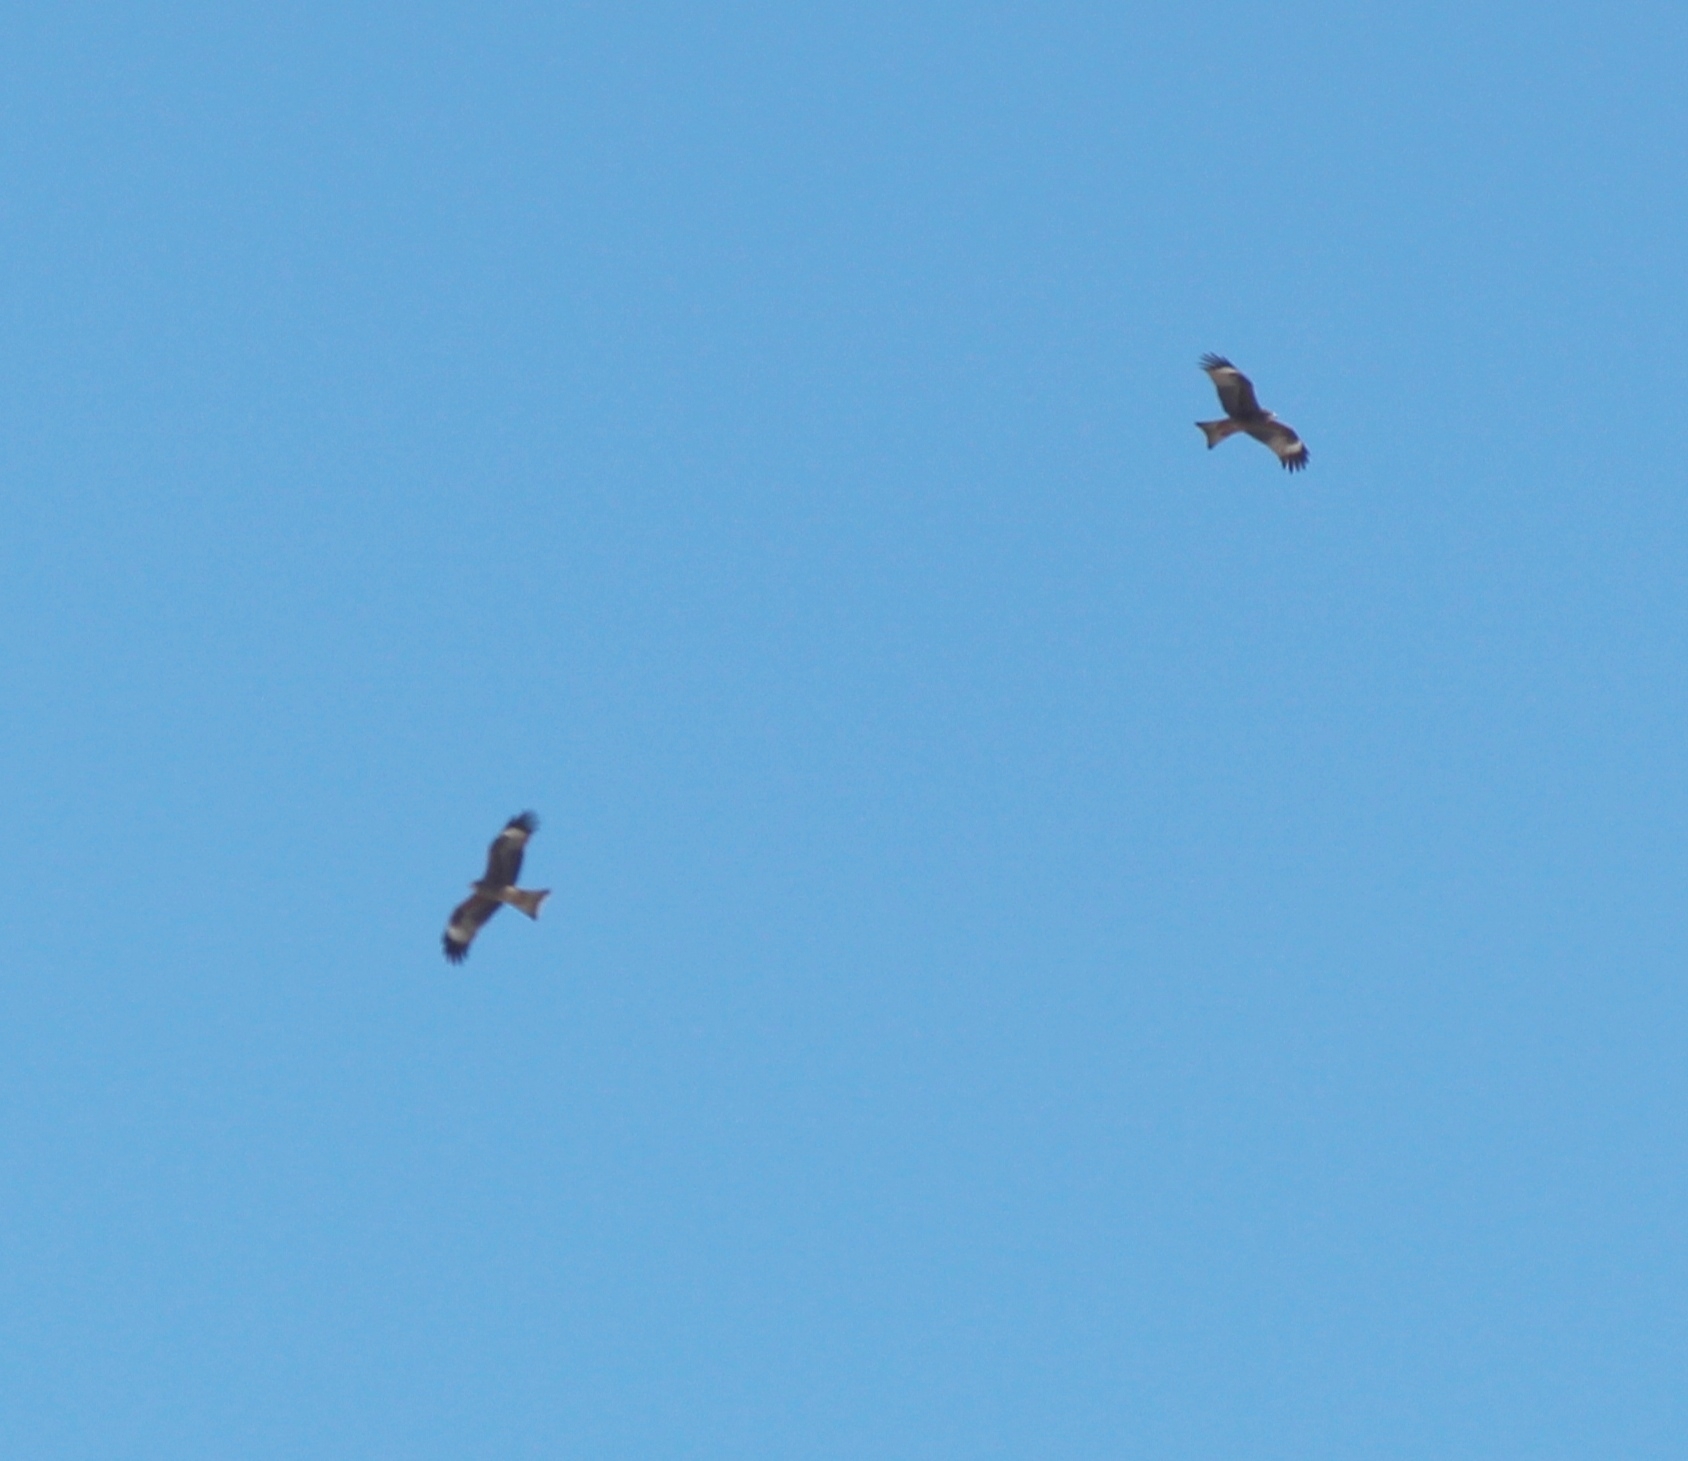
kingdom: Animalia
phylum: Chordata
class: Aves
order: Accipitriformes
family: Accipitridae
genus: Milvus
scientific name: Milvus migrans
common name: Black kite
